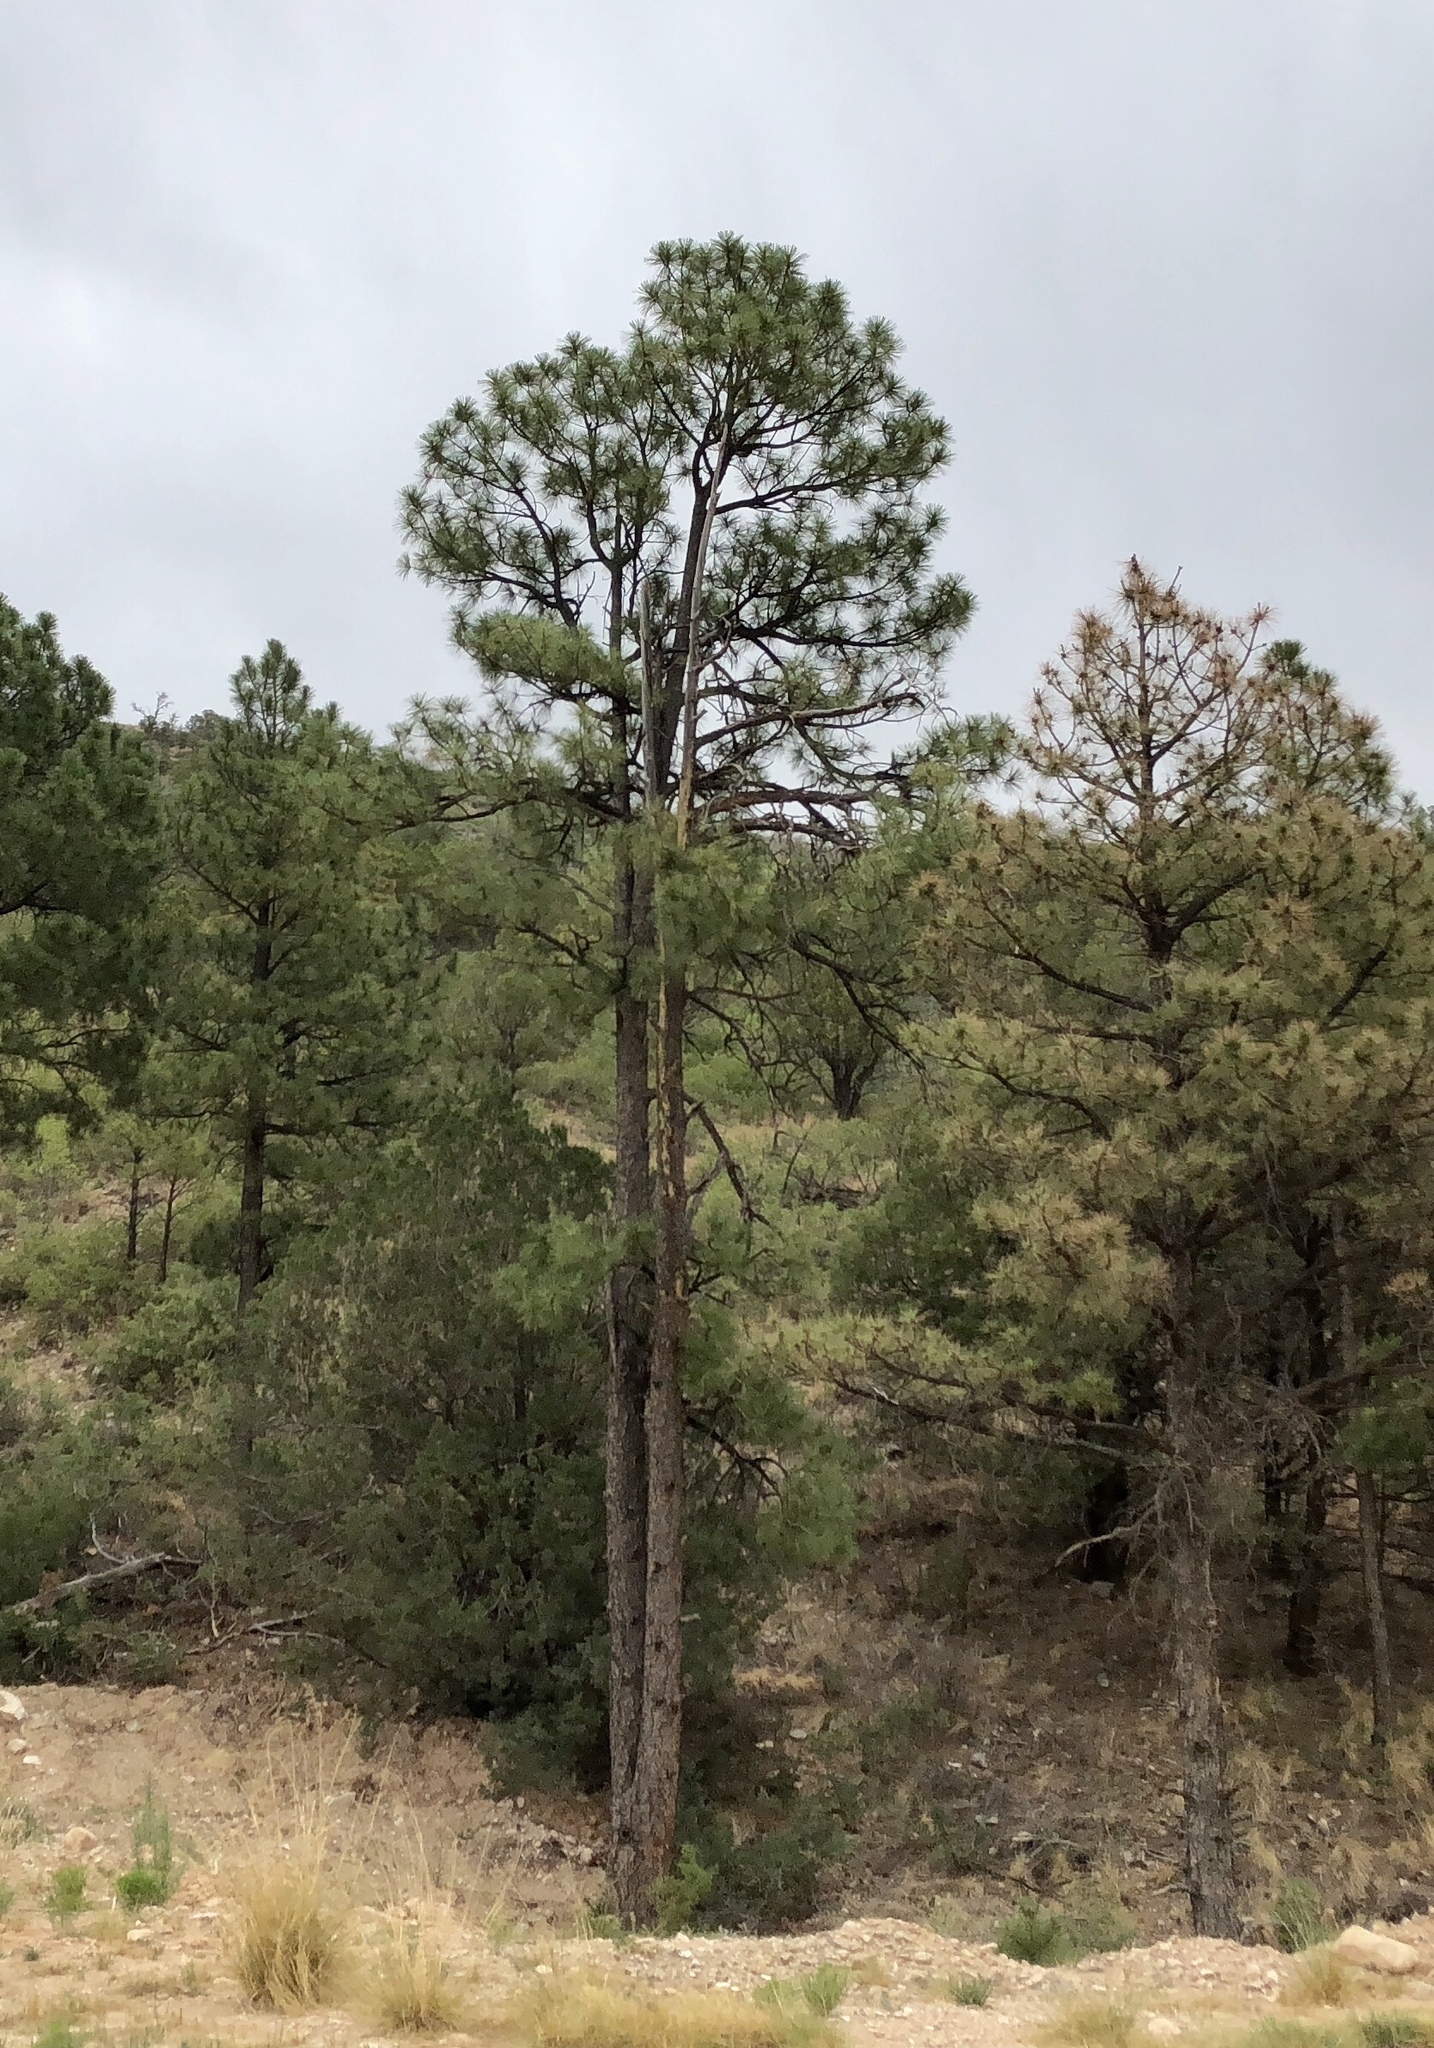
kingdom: Plantae
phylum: Tracheophyta
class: Pinopsida
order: Pinales
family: Pinaceae
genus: Pinus
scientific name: Pinus ponderosa
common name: Western yellow-pine
